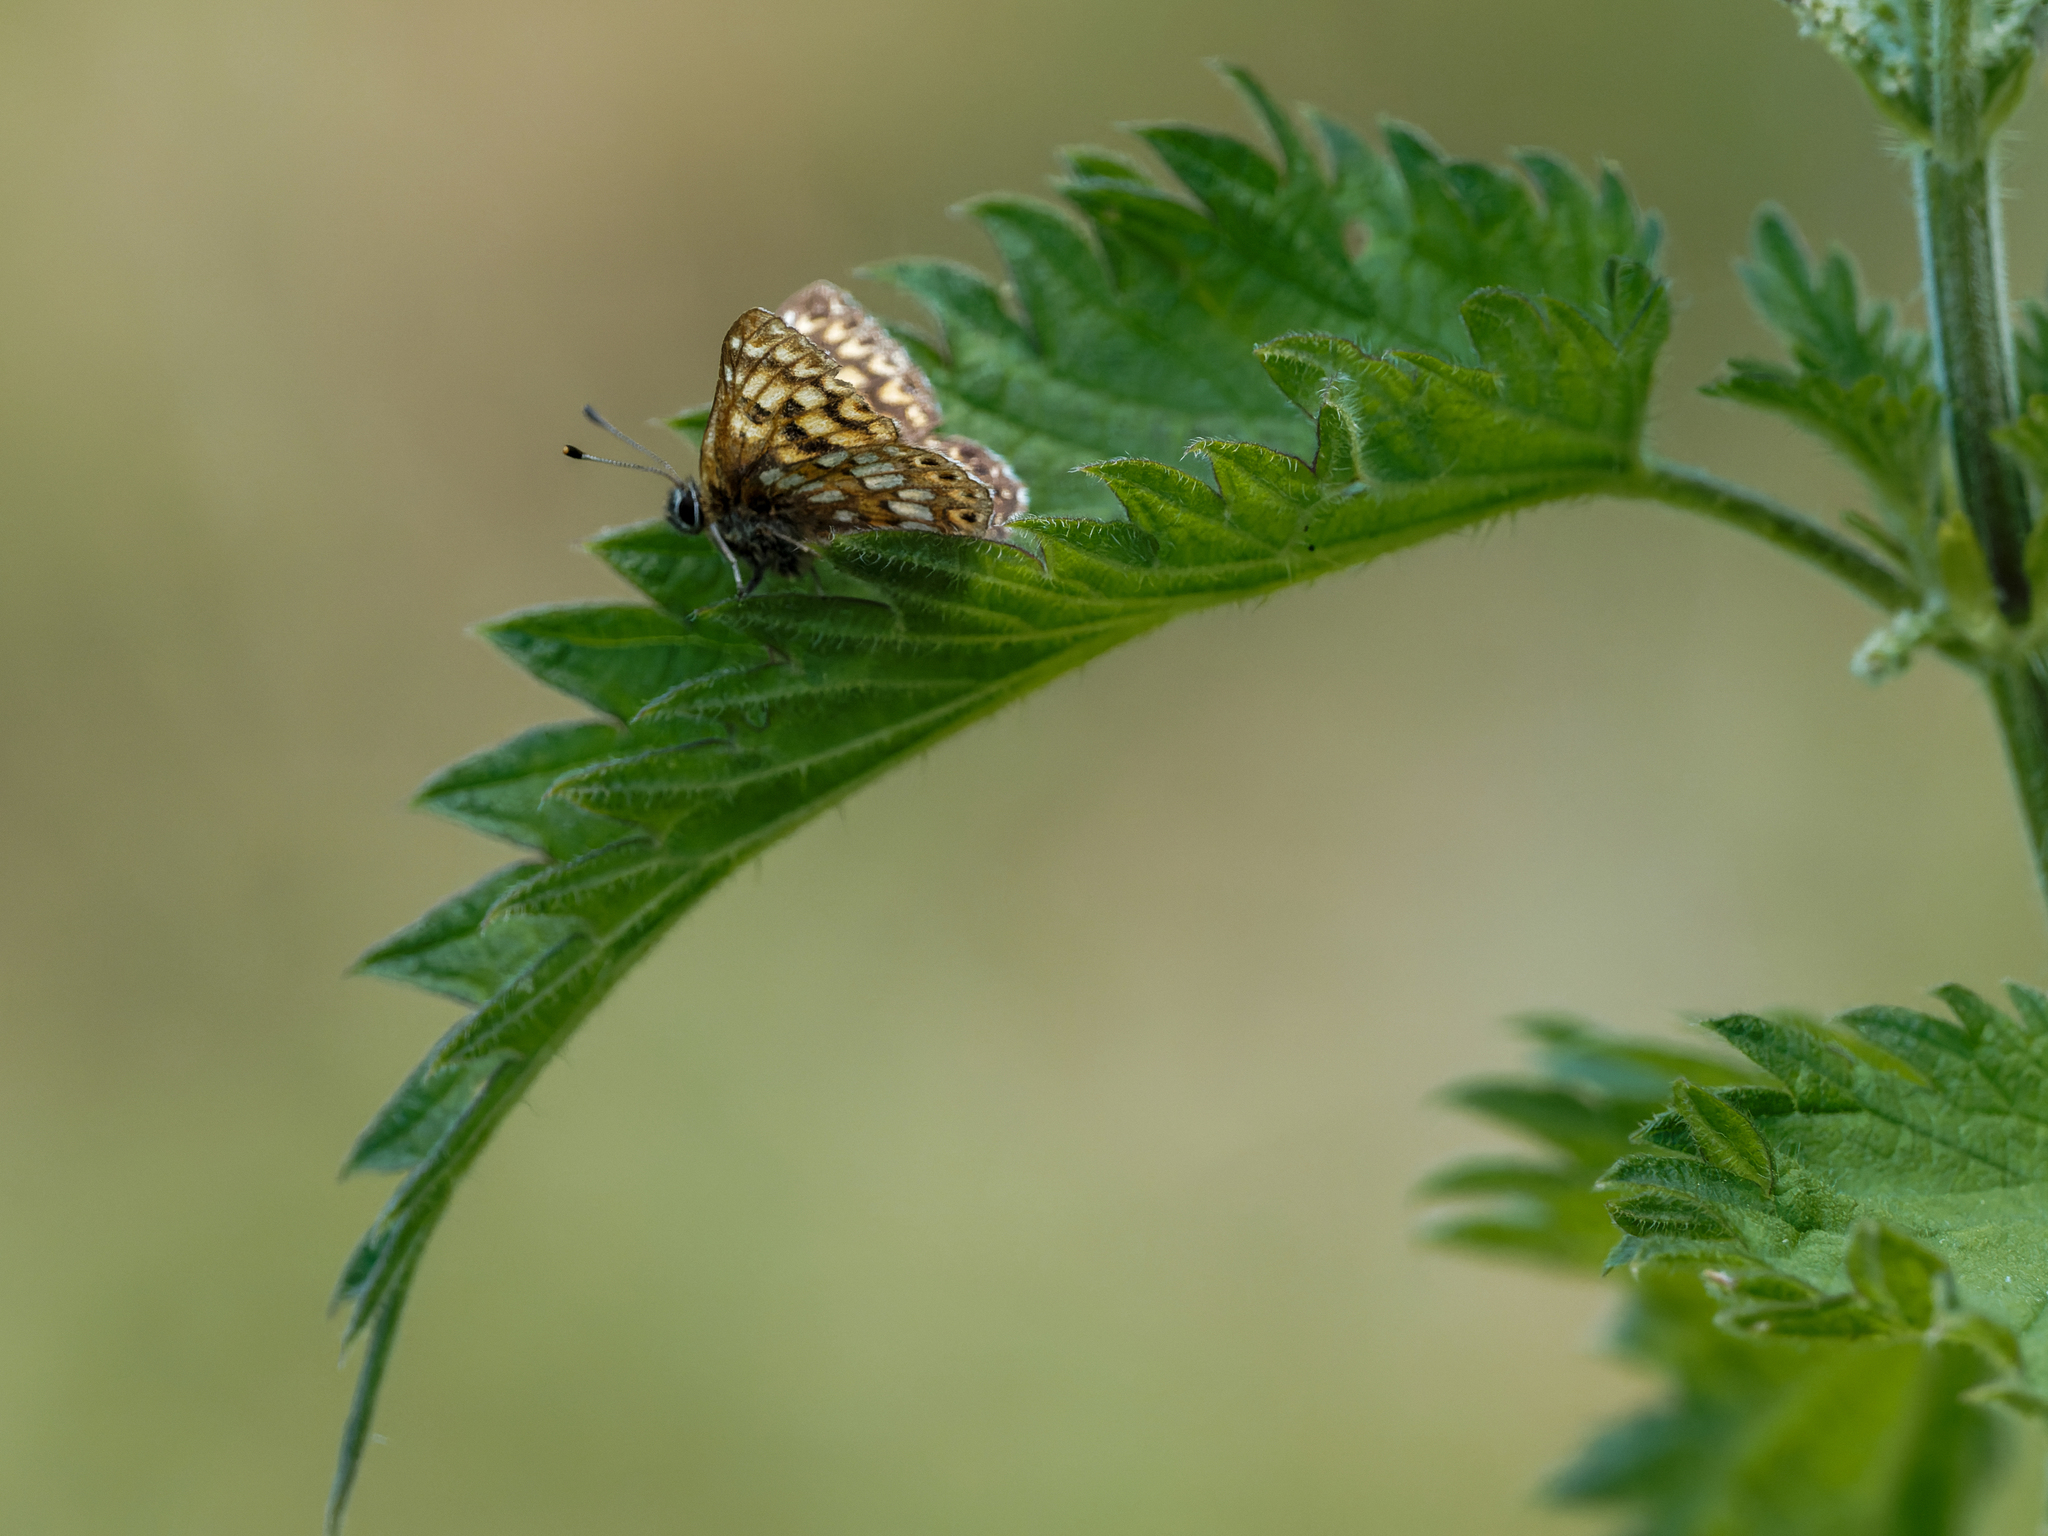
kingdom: Animalia
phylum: Arthropoda
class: Insecta
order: Lepidoptera
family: Riodinidae
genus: Hamearis
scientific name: Hamearis lucina
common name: Duke of burgundy fritillary
